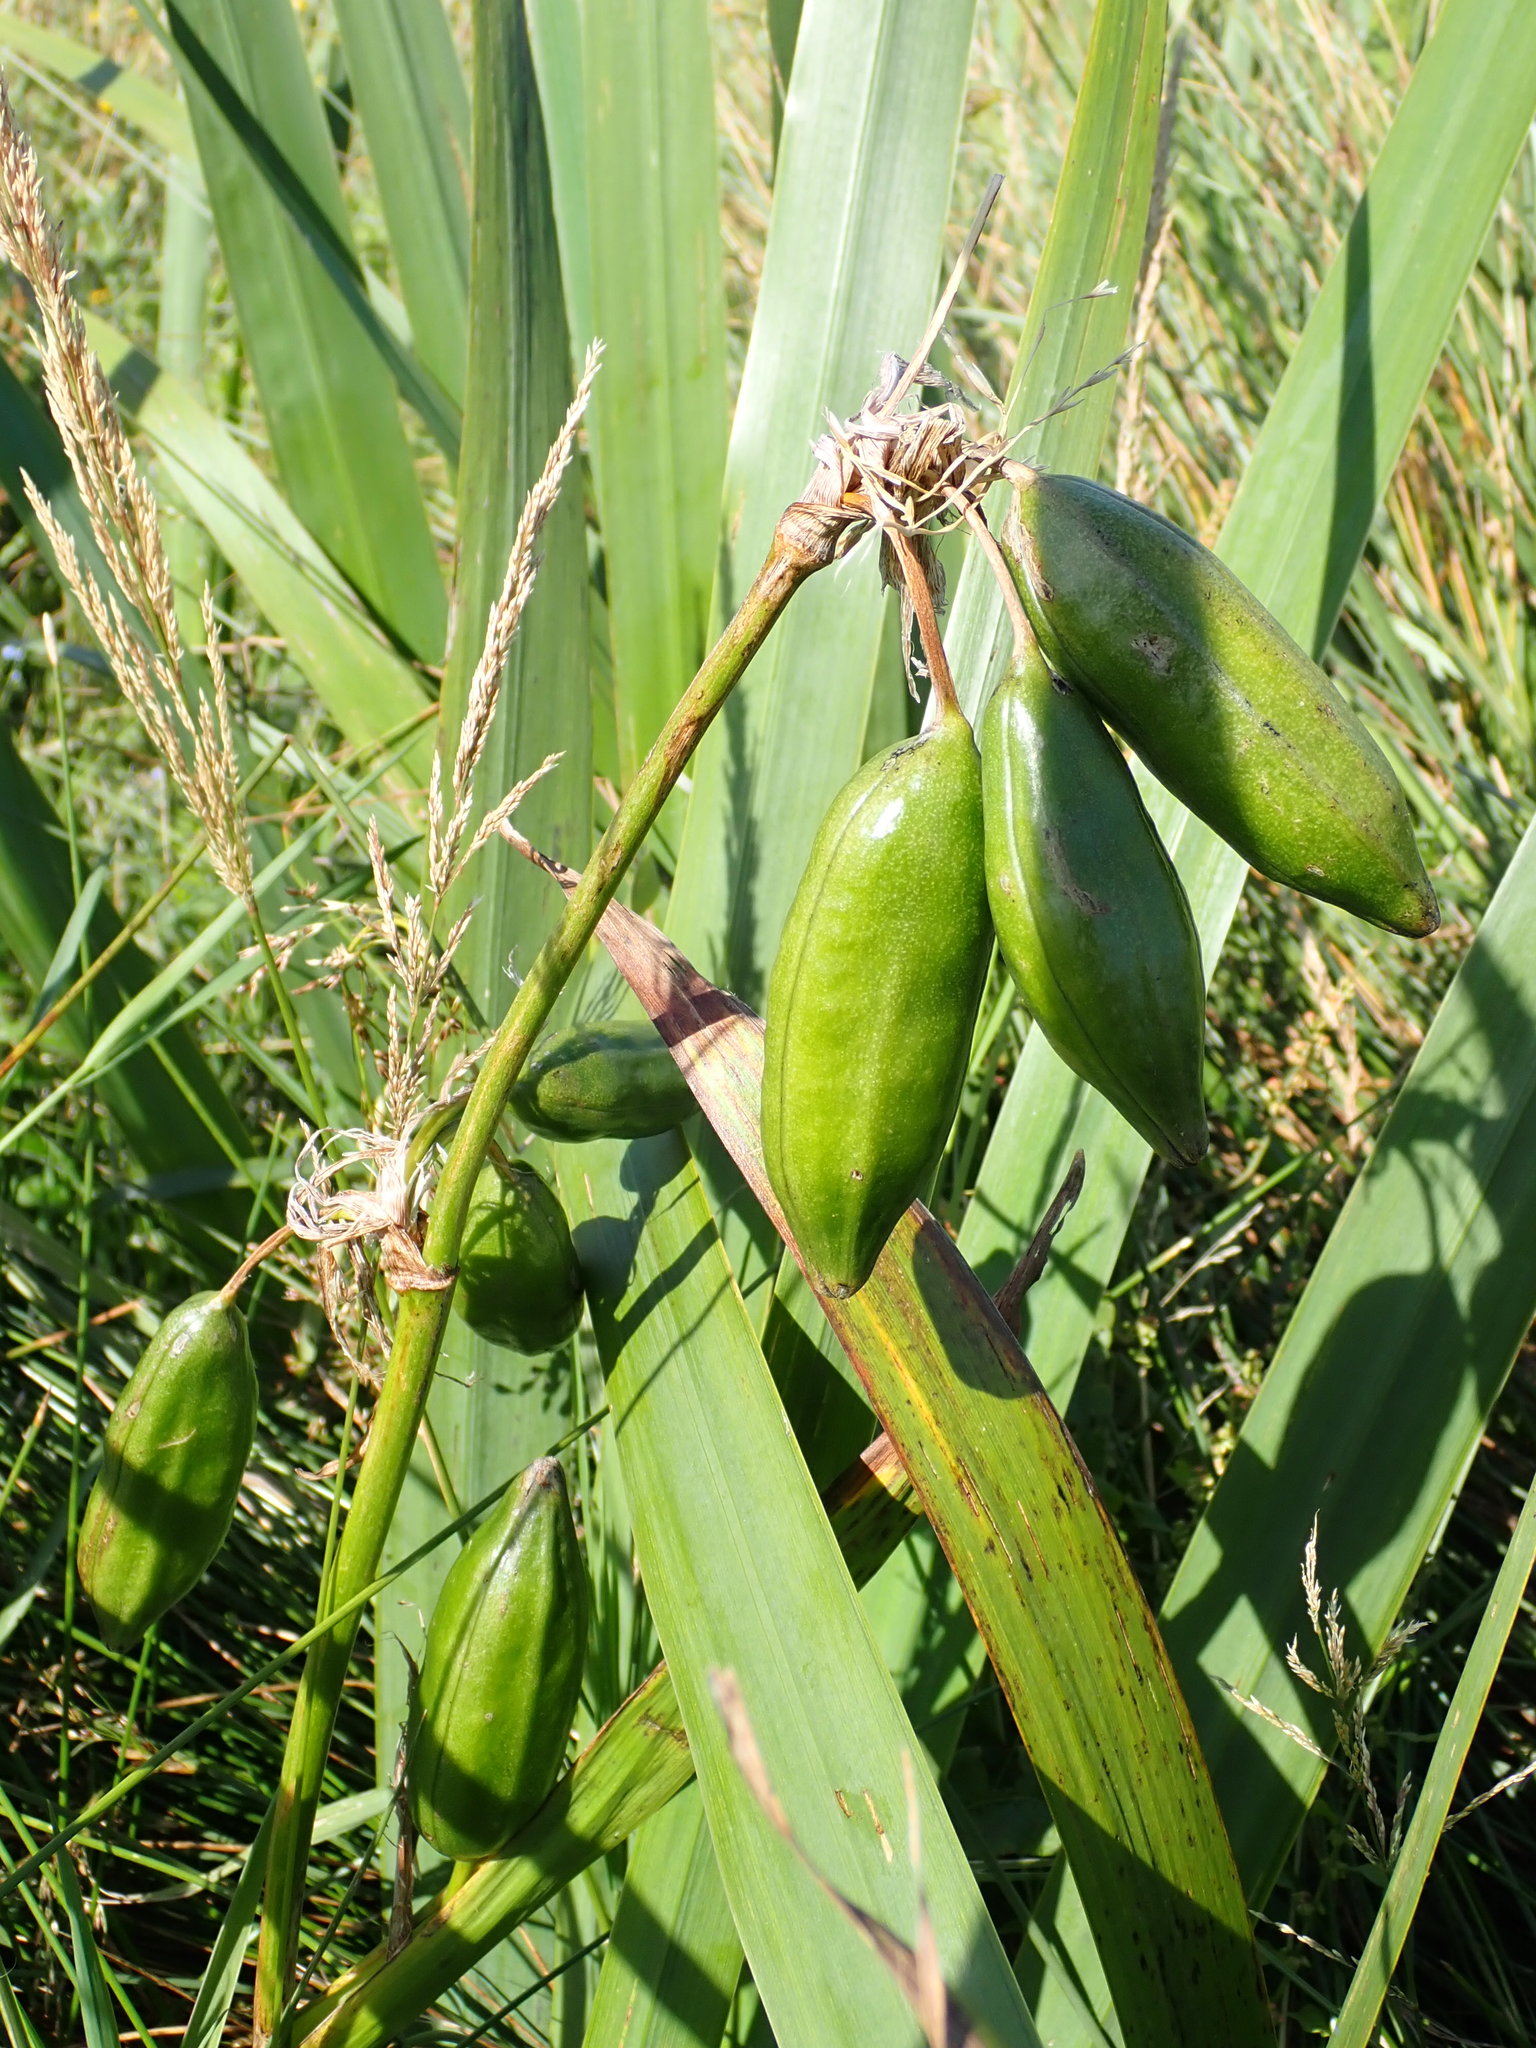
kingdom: Plantae
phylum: Tracheophyta
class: Liliopsida
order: Asparagales
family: Iridaceae
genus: Iris
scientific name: Iris pseudacorus
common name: Yellow flag
